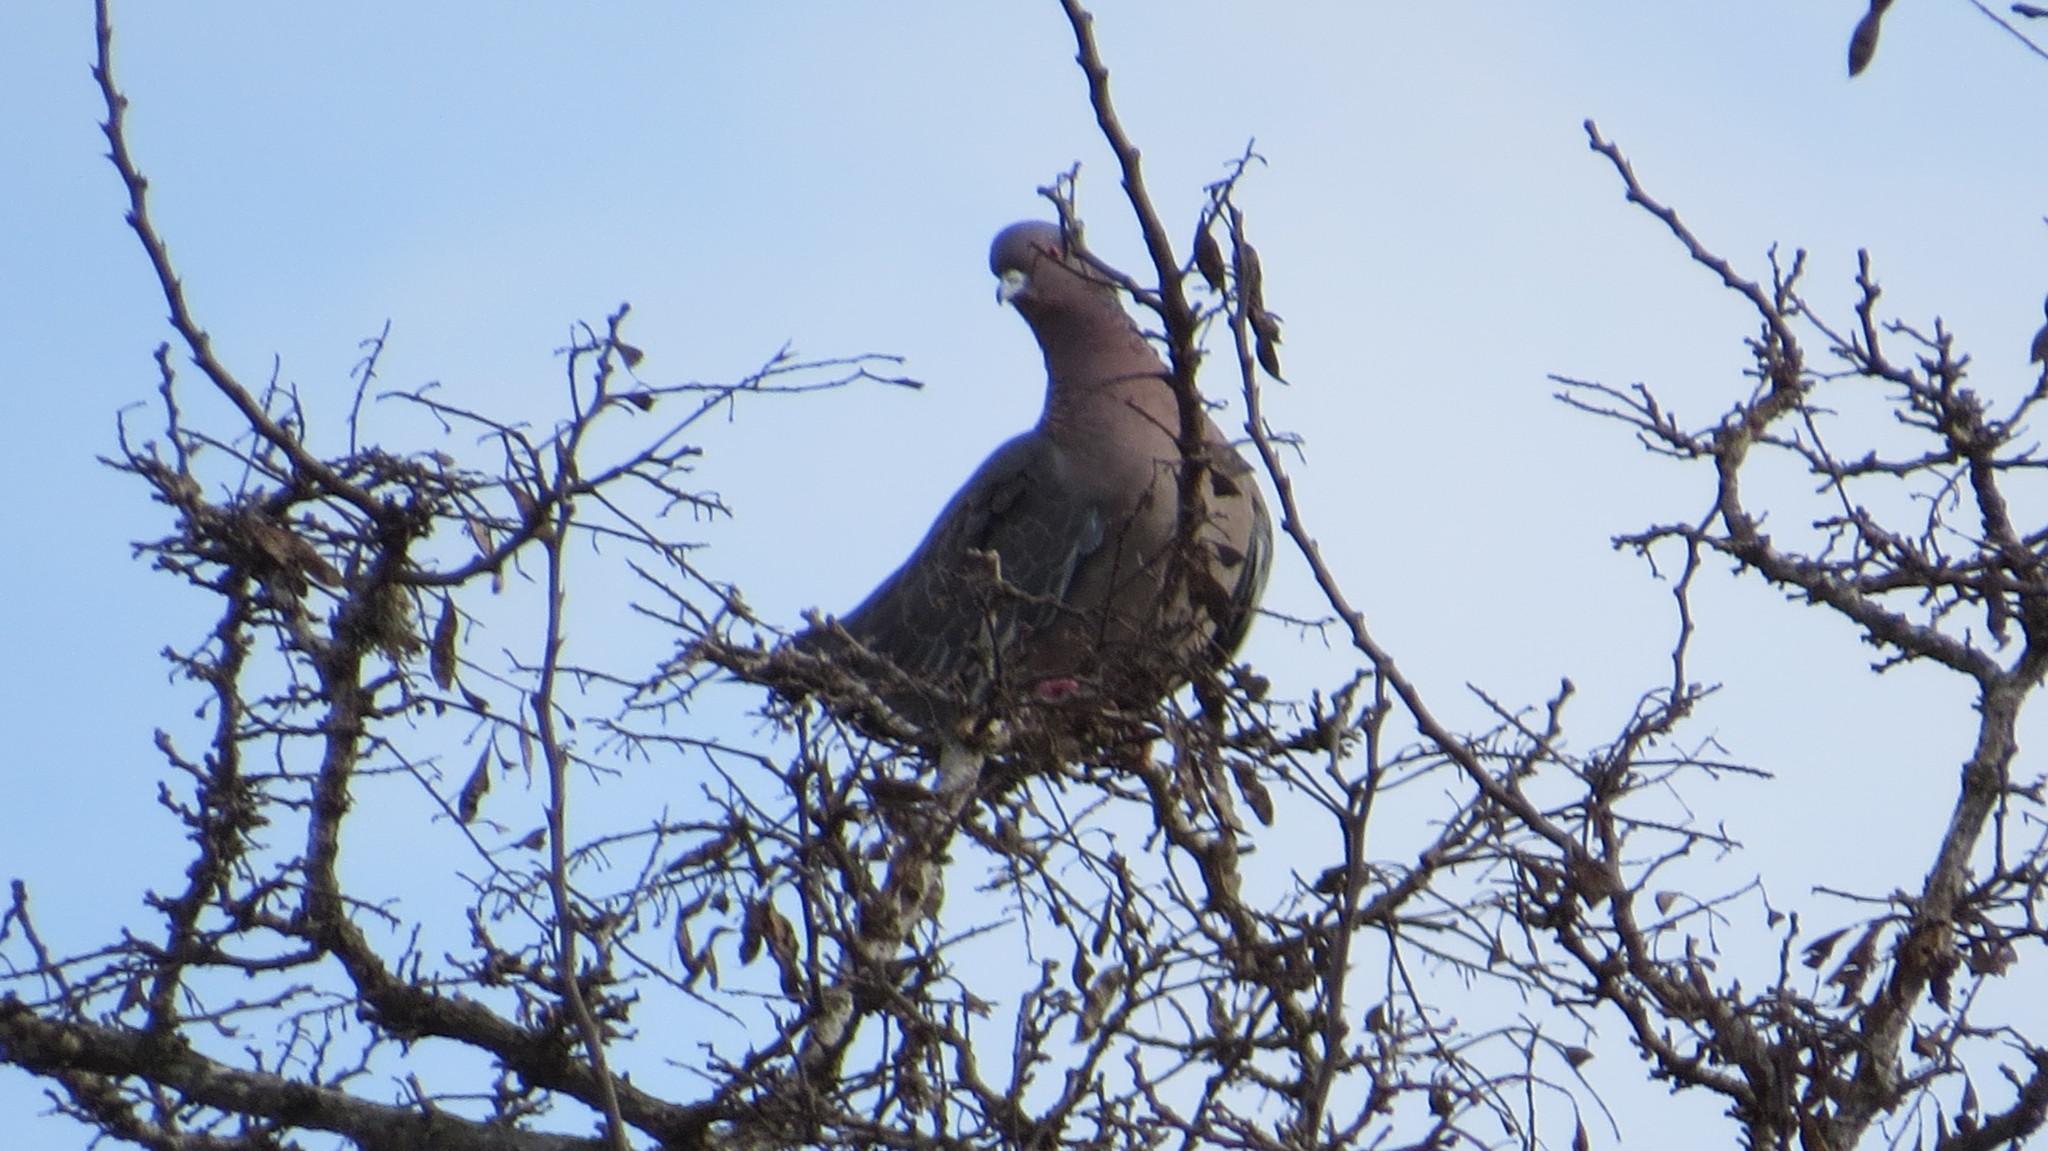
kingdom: Animalia
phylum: Chordata
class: Aves
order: Columbiformes
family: Columbidae
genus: Patagioenas
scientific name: Patagioenas picazuro
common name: Picazuro pigeon
